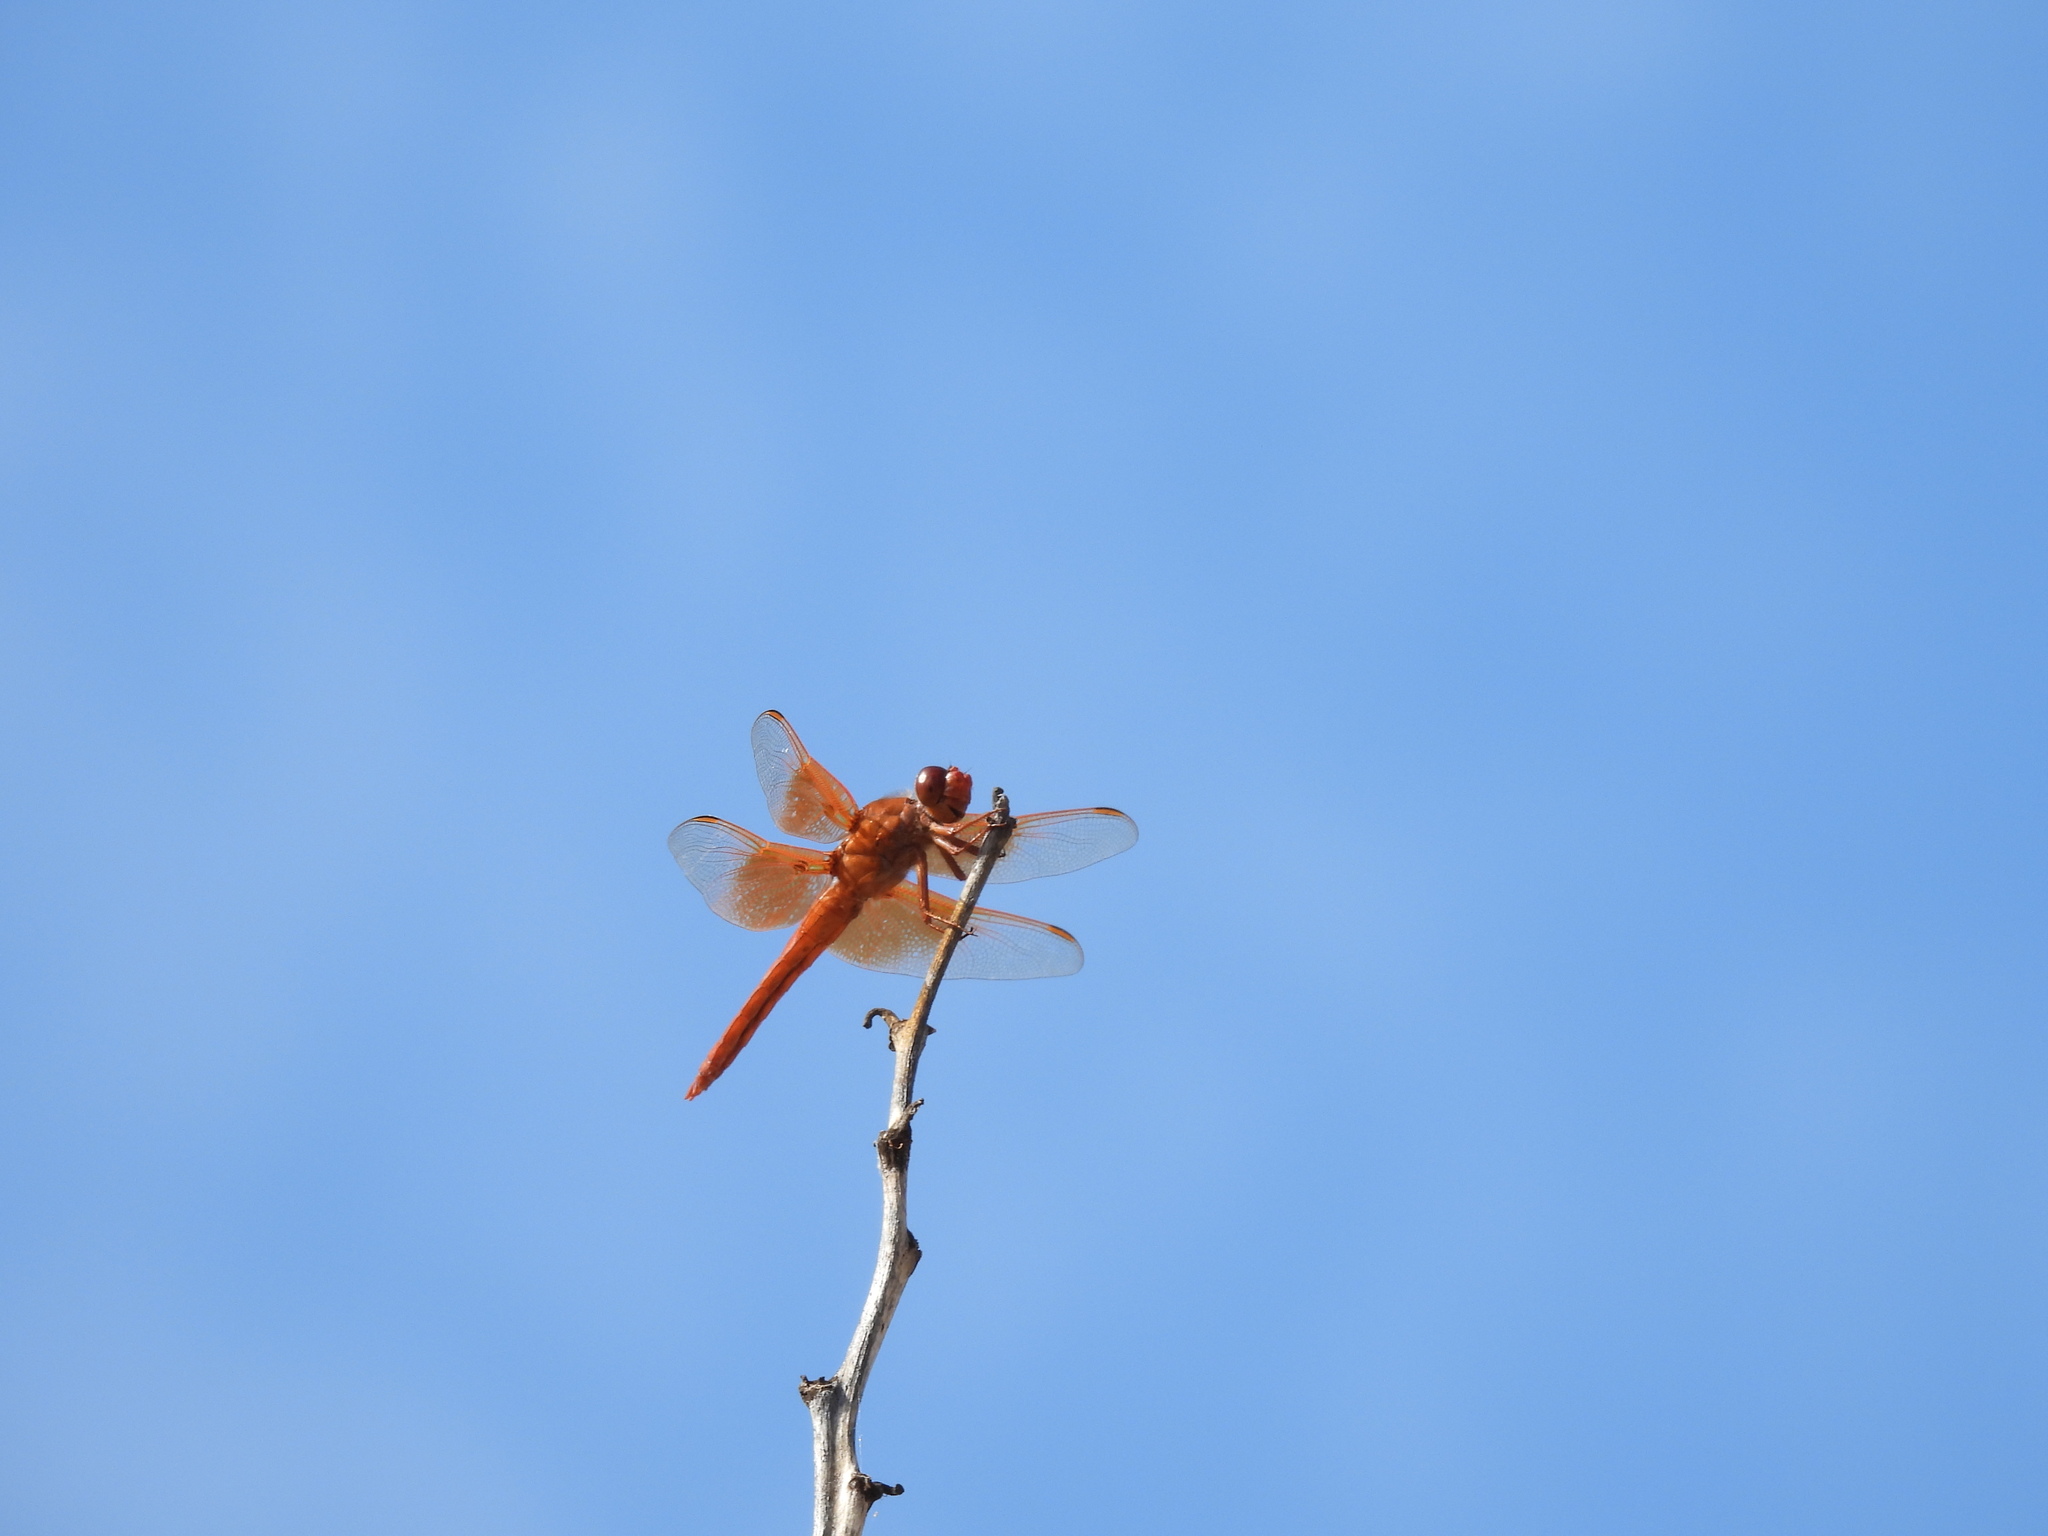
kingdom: Animalia
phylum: Arthropoda
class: Insecta
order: Odonata
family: Libellulidae
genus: Libellula
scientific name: Libellula saturata
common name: Flame skimmer
